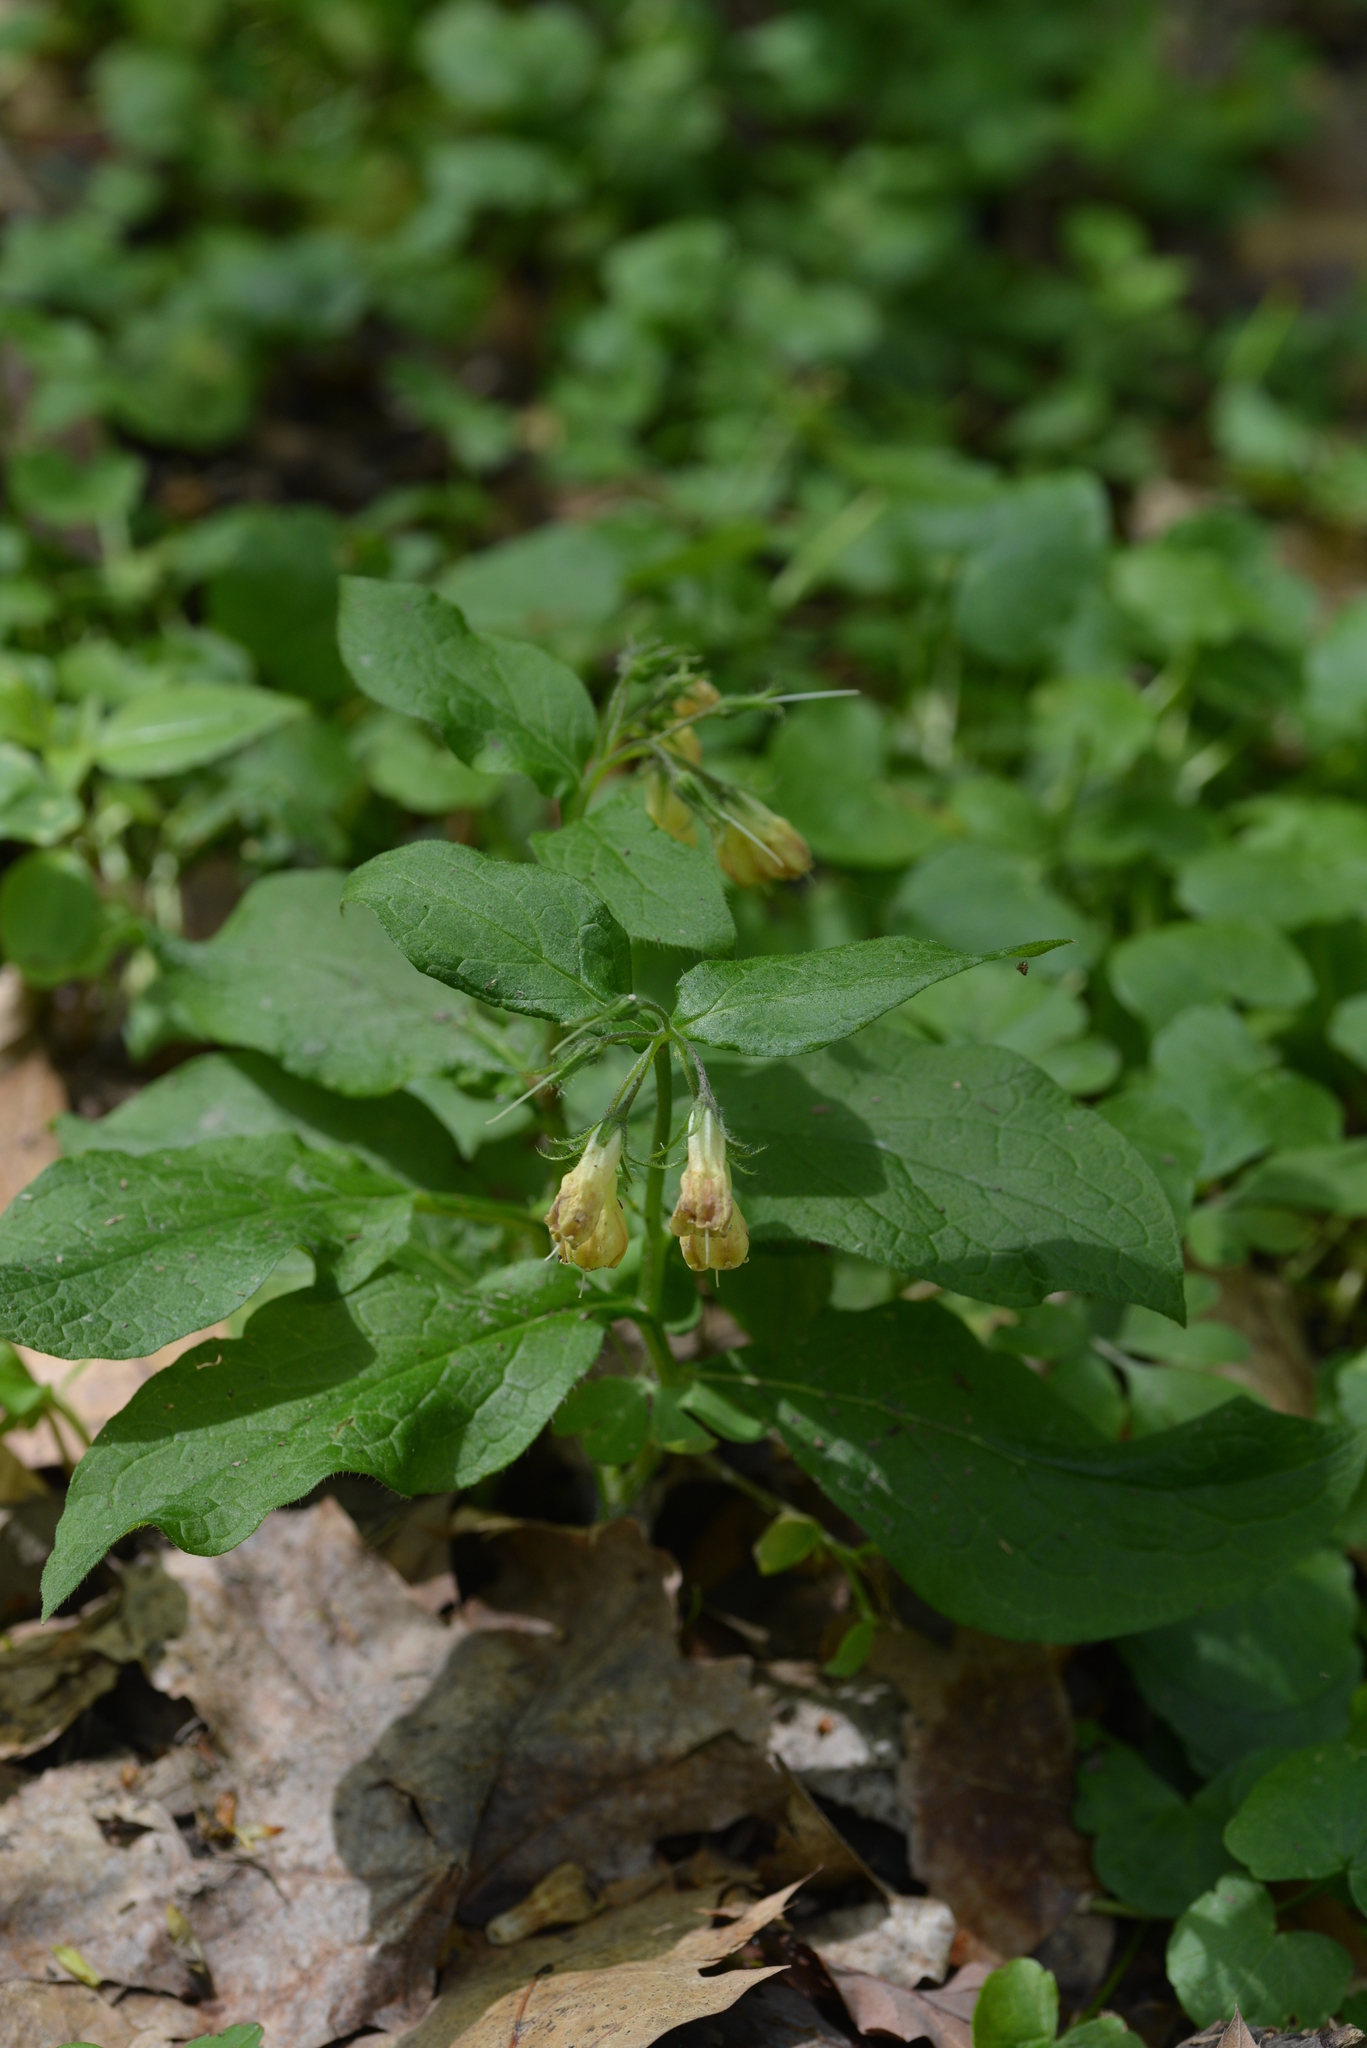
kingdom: Plantae
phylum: Tracheophyta
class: Magnoliopsida
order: Boraginales
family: Boraginaceae
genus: Symphytum
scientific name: Symphytum tuberosum
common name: Tuberous comfrey
